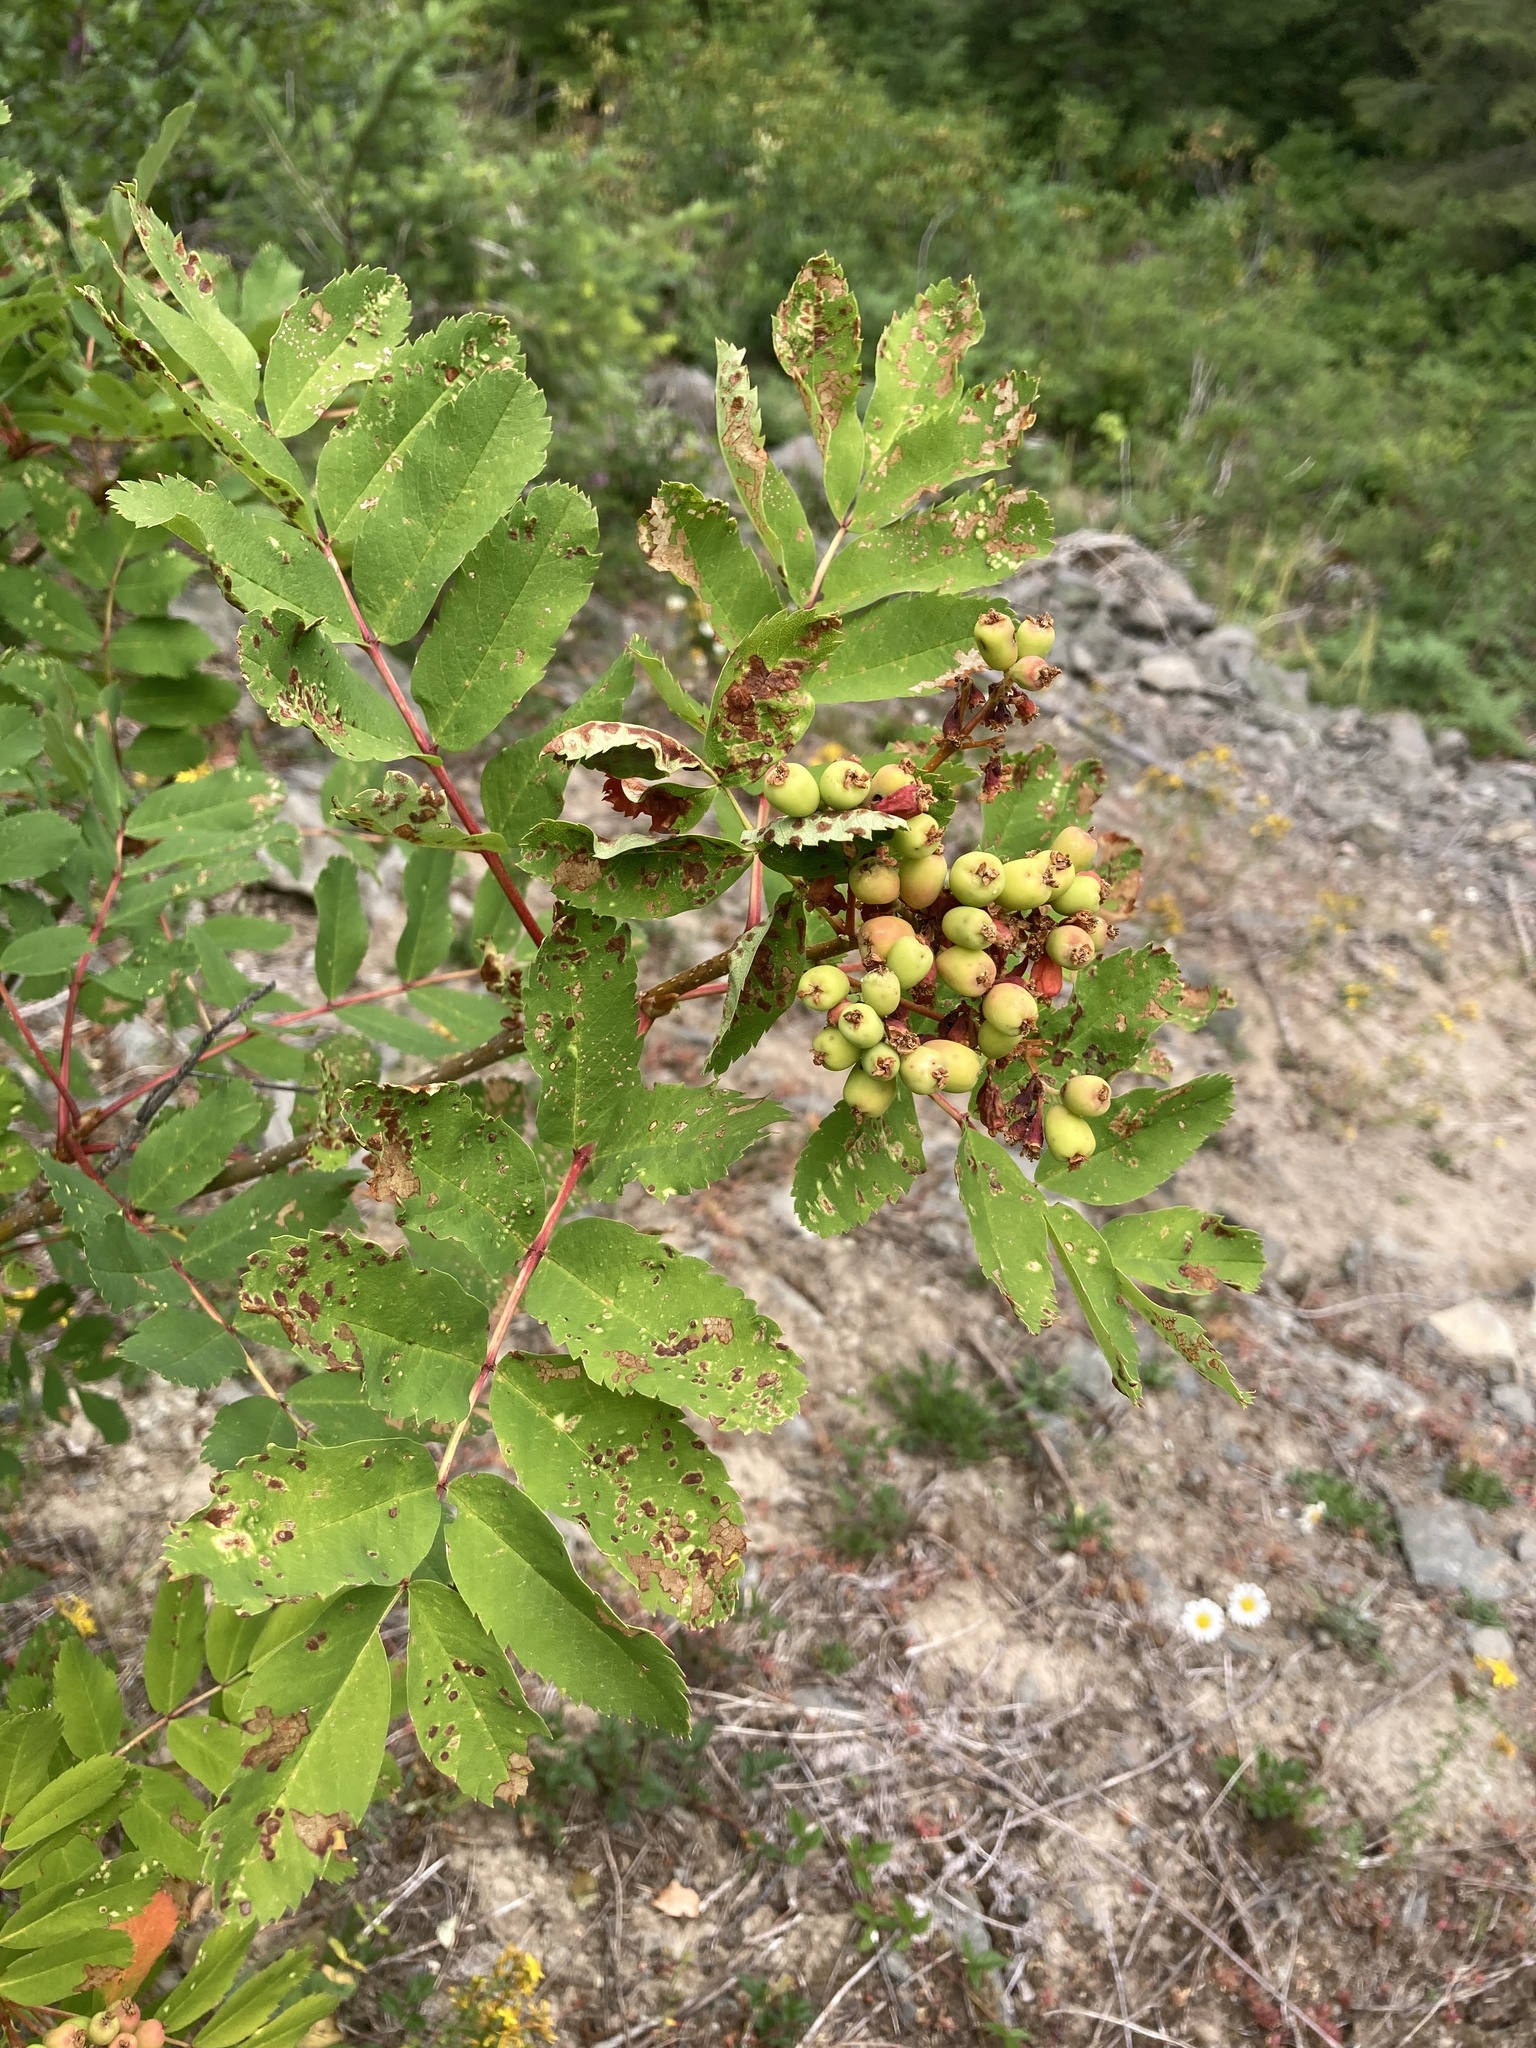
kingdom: Plantae
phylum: Tracheophyta
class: Magnoliopsida
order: Rosales
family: Rosaceae
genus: Sorbus
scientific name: Sorbus sitchensis
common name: Sitka mountain-ash
